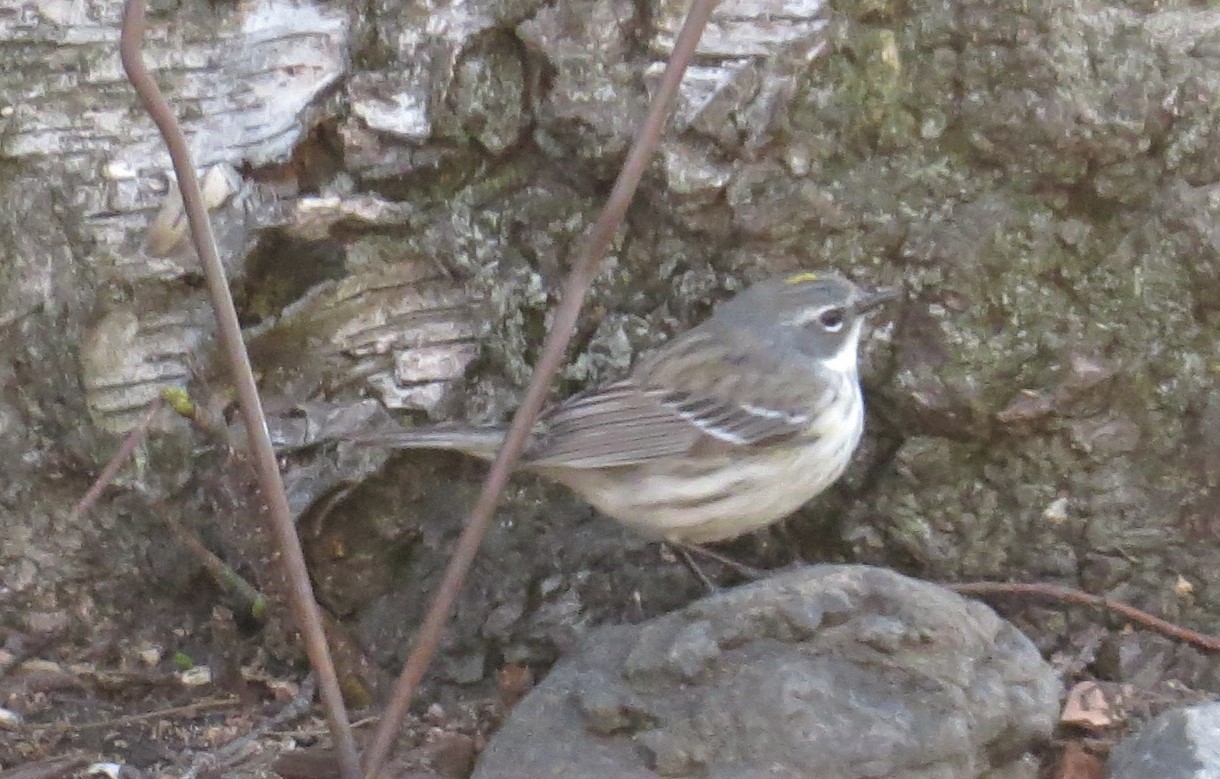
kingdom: Animalia
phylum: Chordata
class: Aves
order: Passeriformes
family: Parulidae
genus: Setophaga
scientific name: Setophaga coronata
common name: Myrtle warbler
